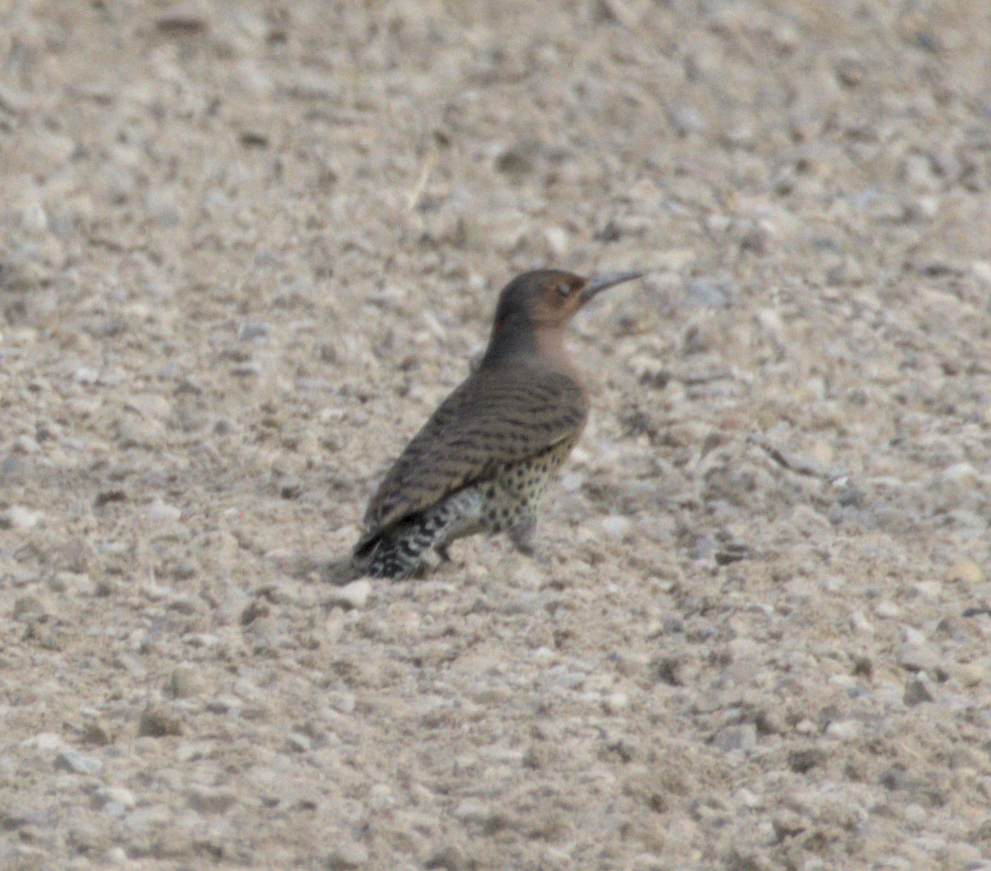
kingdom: Animalia
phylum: Chordata
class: Aves
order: Piciformes
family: Picidae
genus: Colaptes
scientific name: Colaptes auratus
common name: Northern flicker
